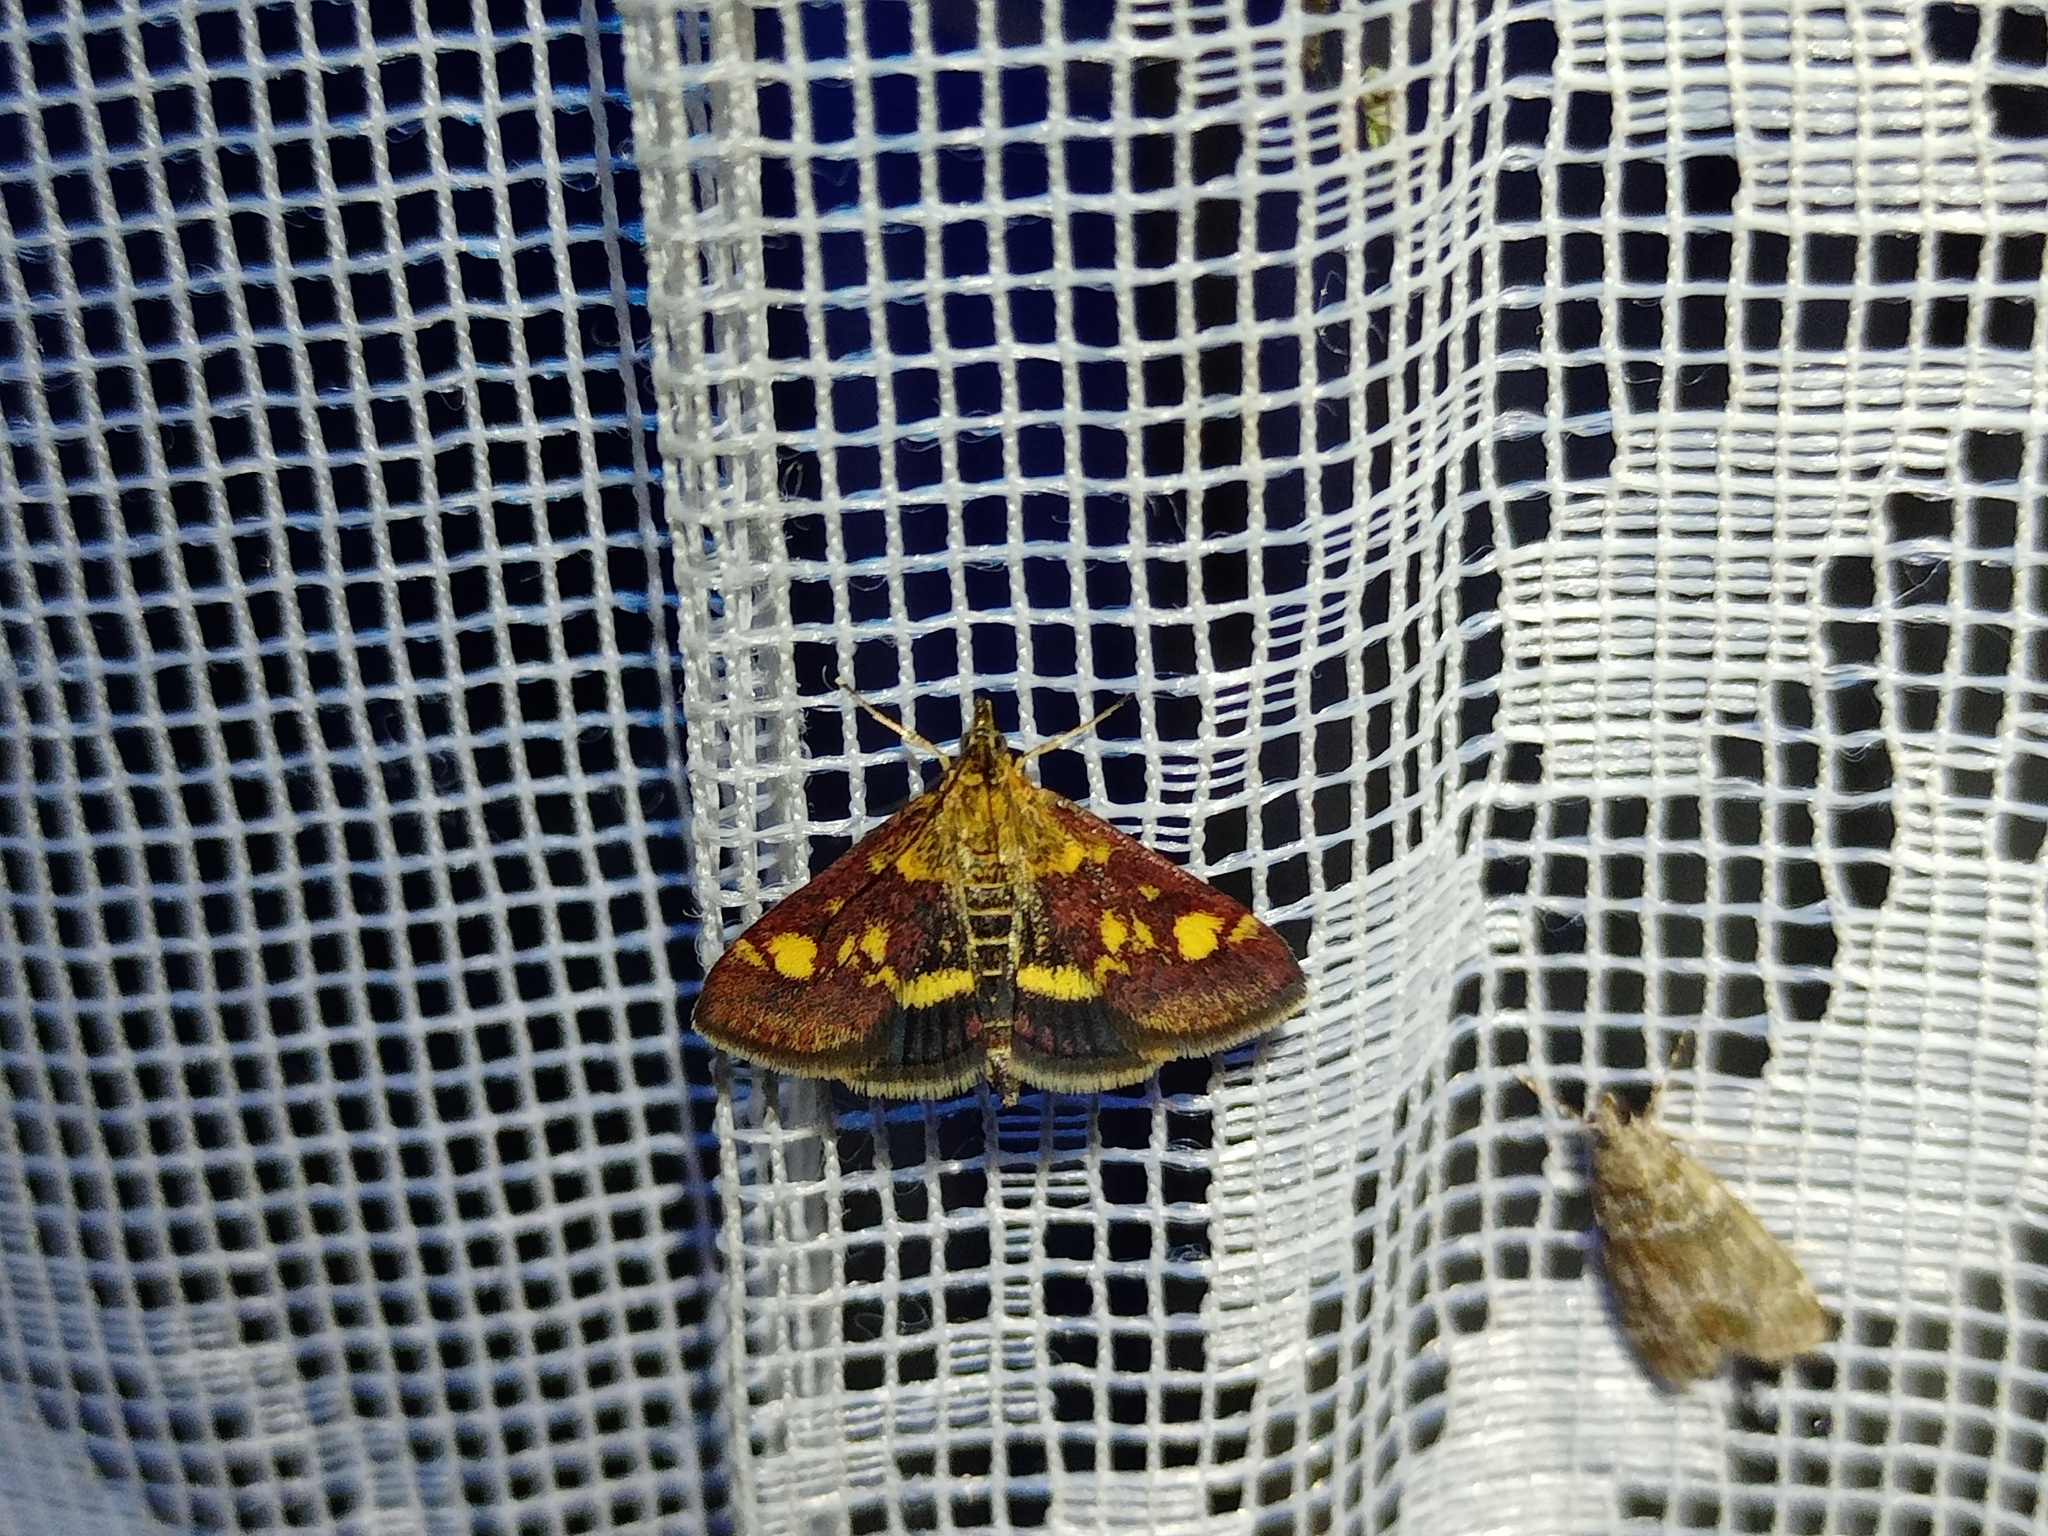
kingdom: Animalia
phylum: Arthropoda
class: Insecta
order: Lepidoptera
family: Crambidae
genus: Pyrausta
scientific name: Pyrausta aurata
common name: Small purple & gold
